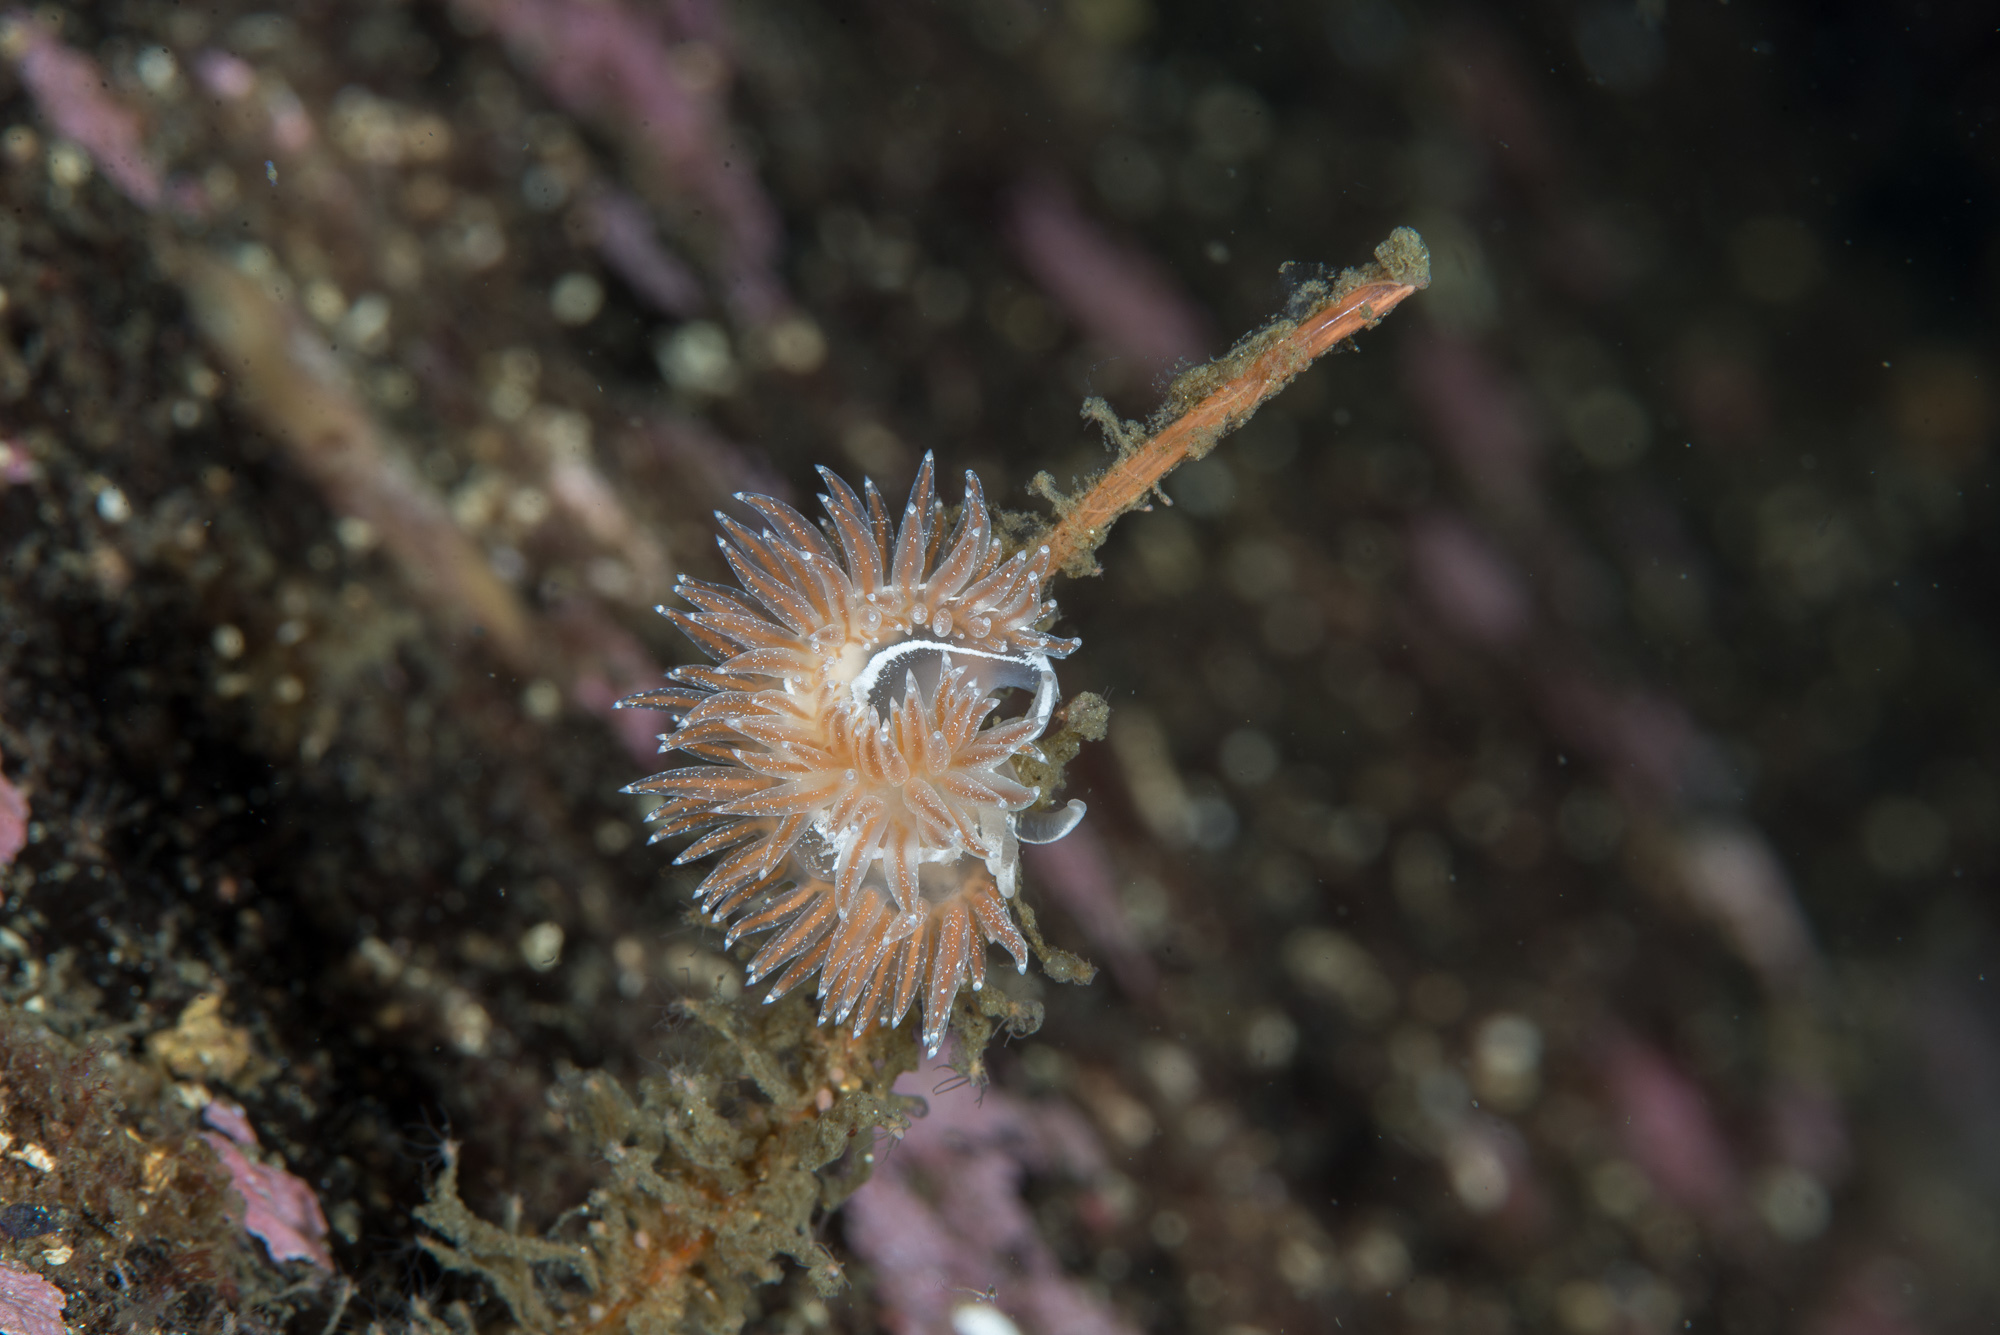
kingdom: Animalia
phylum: Mollusca
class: Gastropoda
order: Nudibranchia
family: Coryphellidae
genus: Coryphella
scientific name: Coryphella monicae
